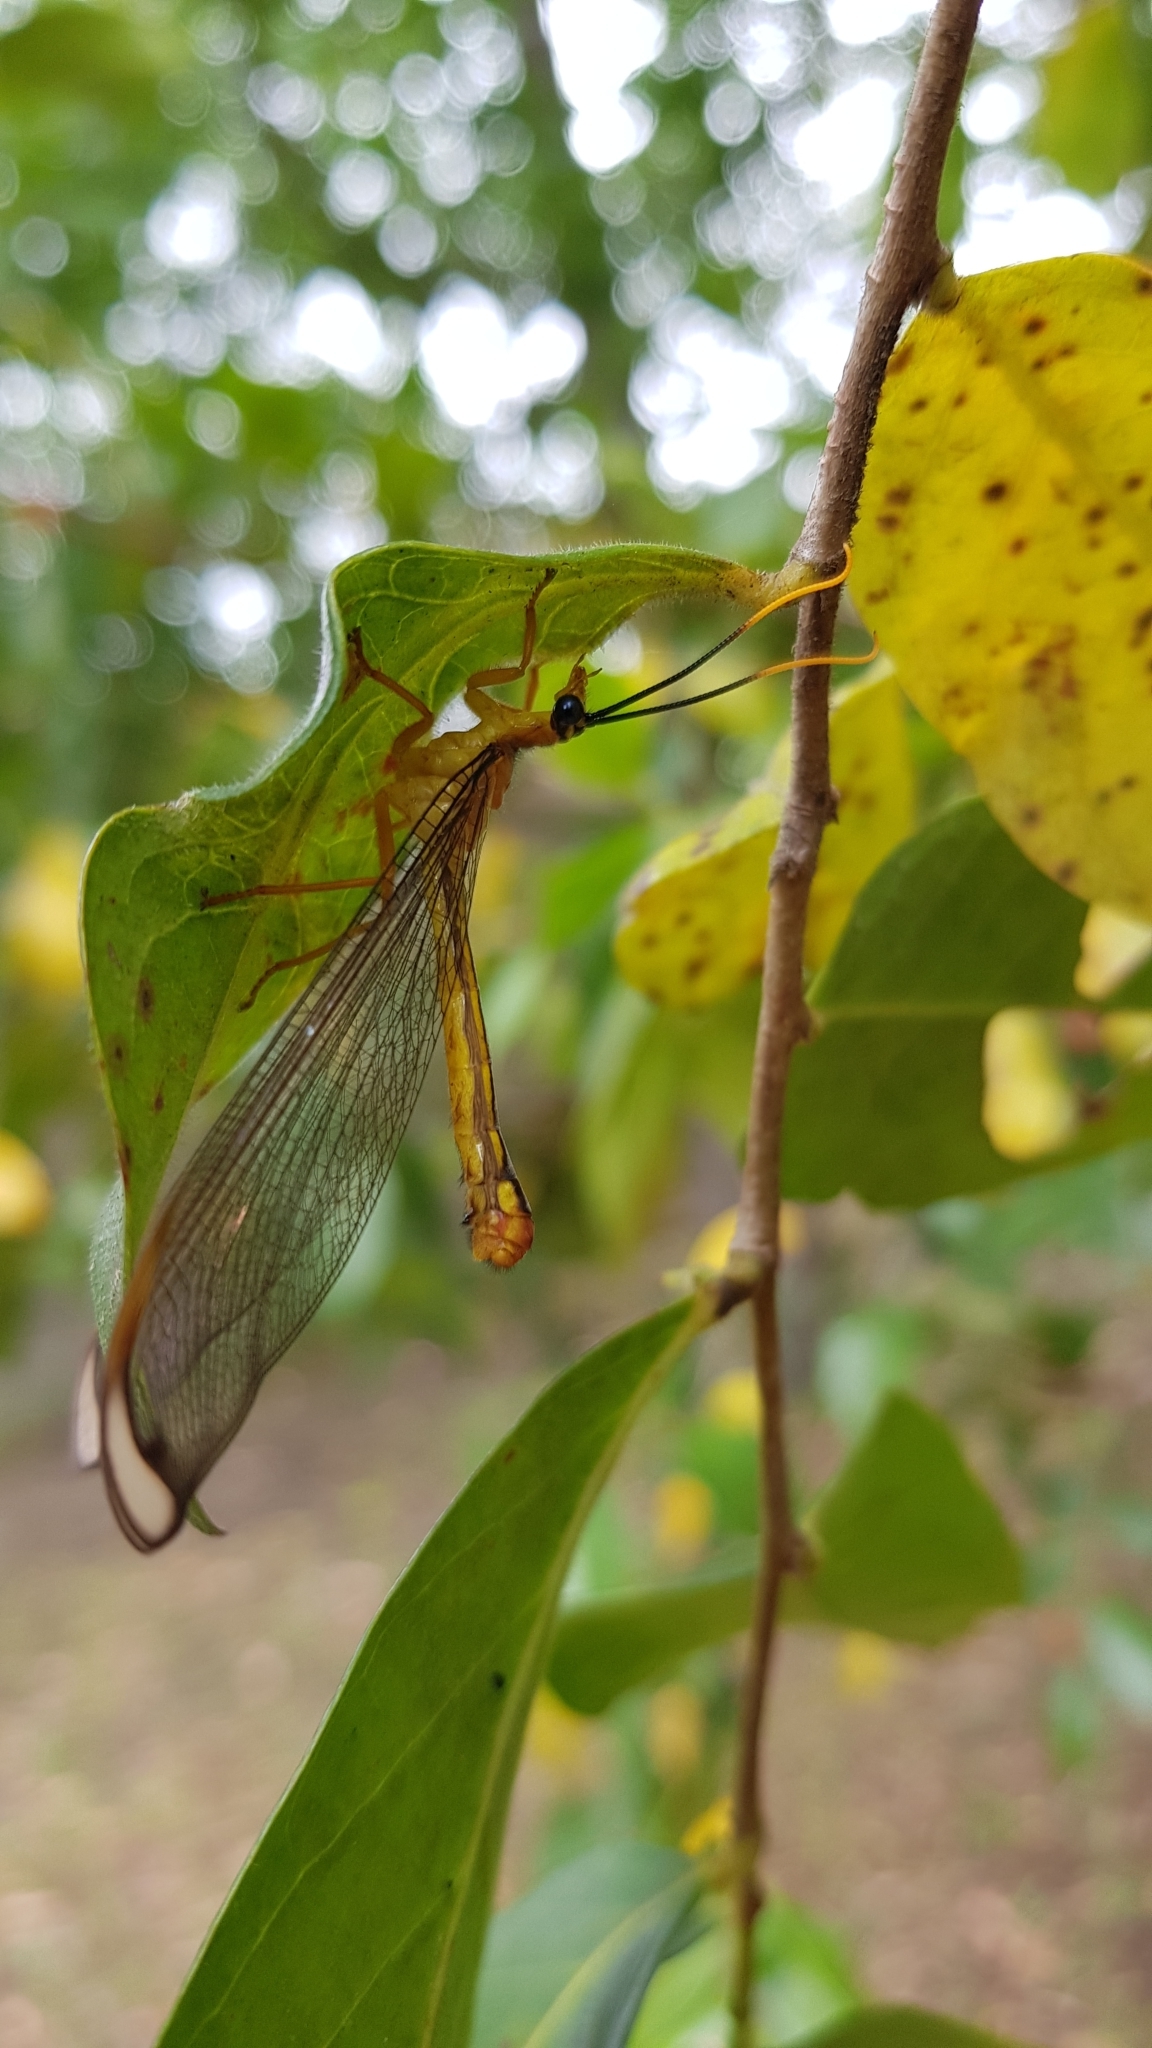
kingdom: Animalia
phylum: Arthropoda
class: Insecta
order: Neuroptera
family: Nymphidae
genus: Nymphes
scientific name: Nymphes myrmeleonoides
